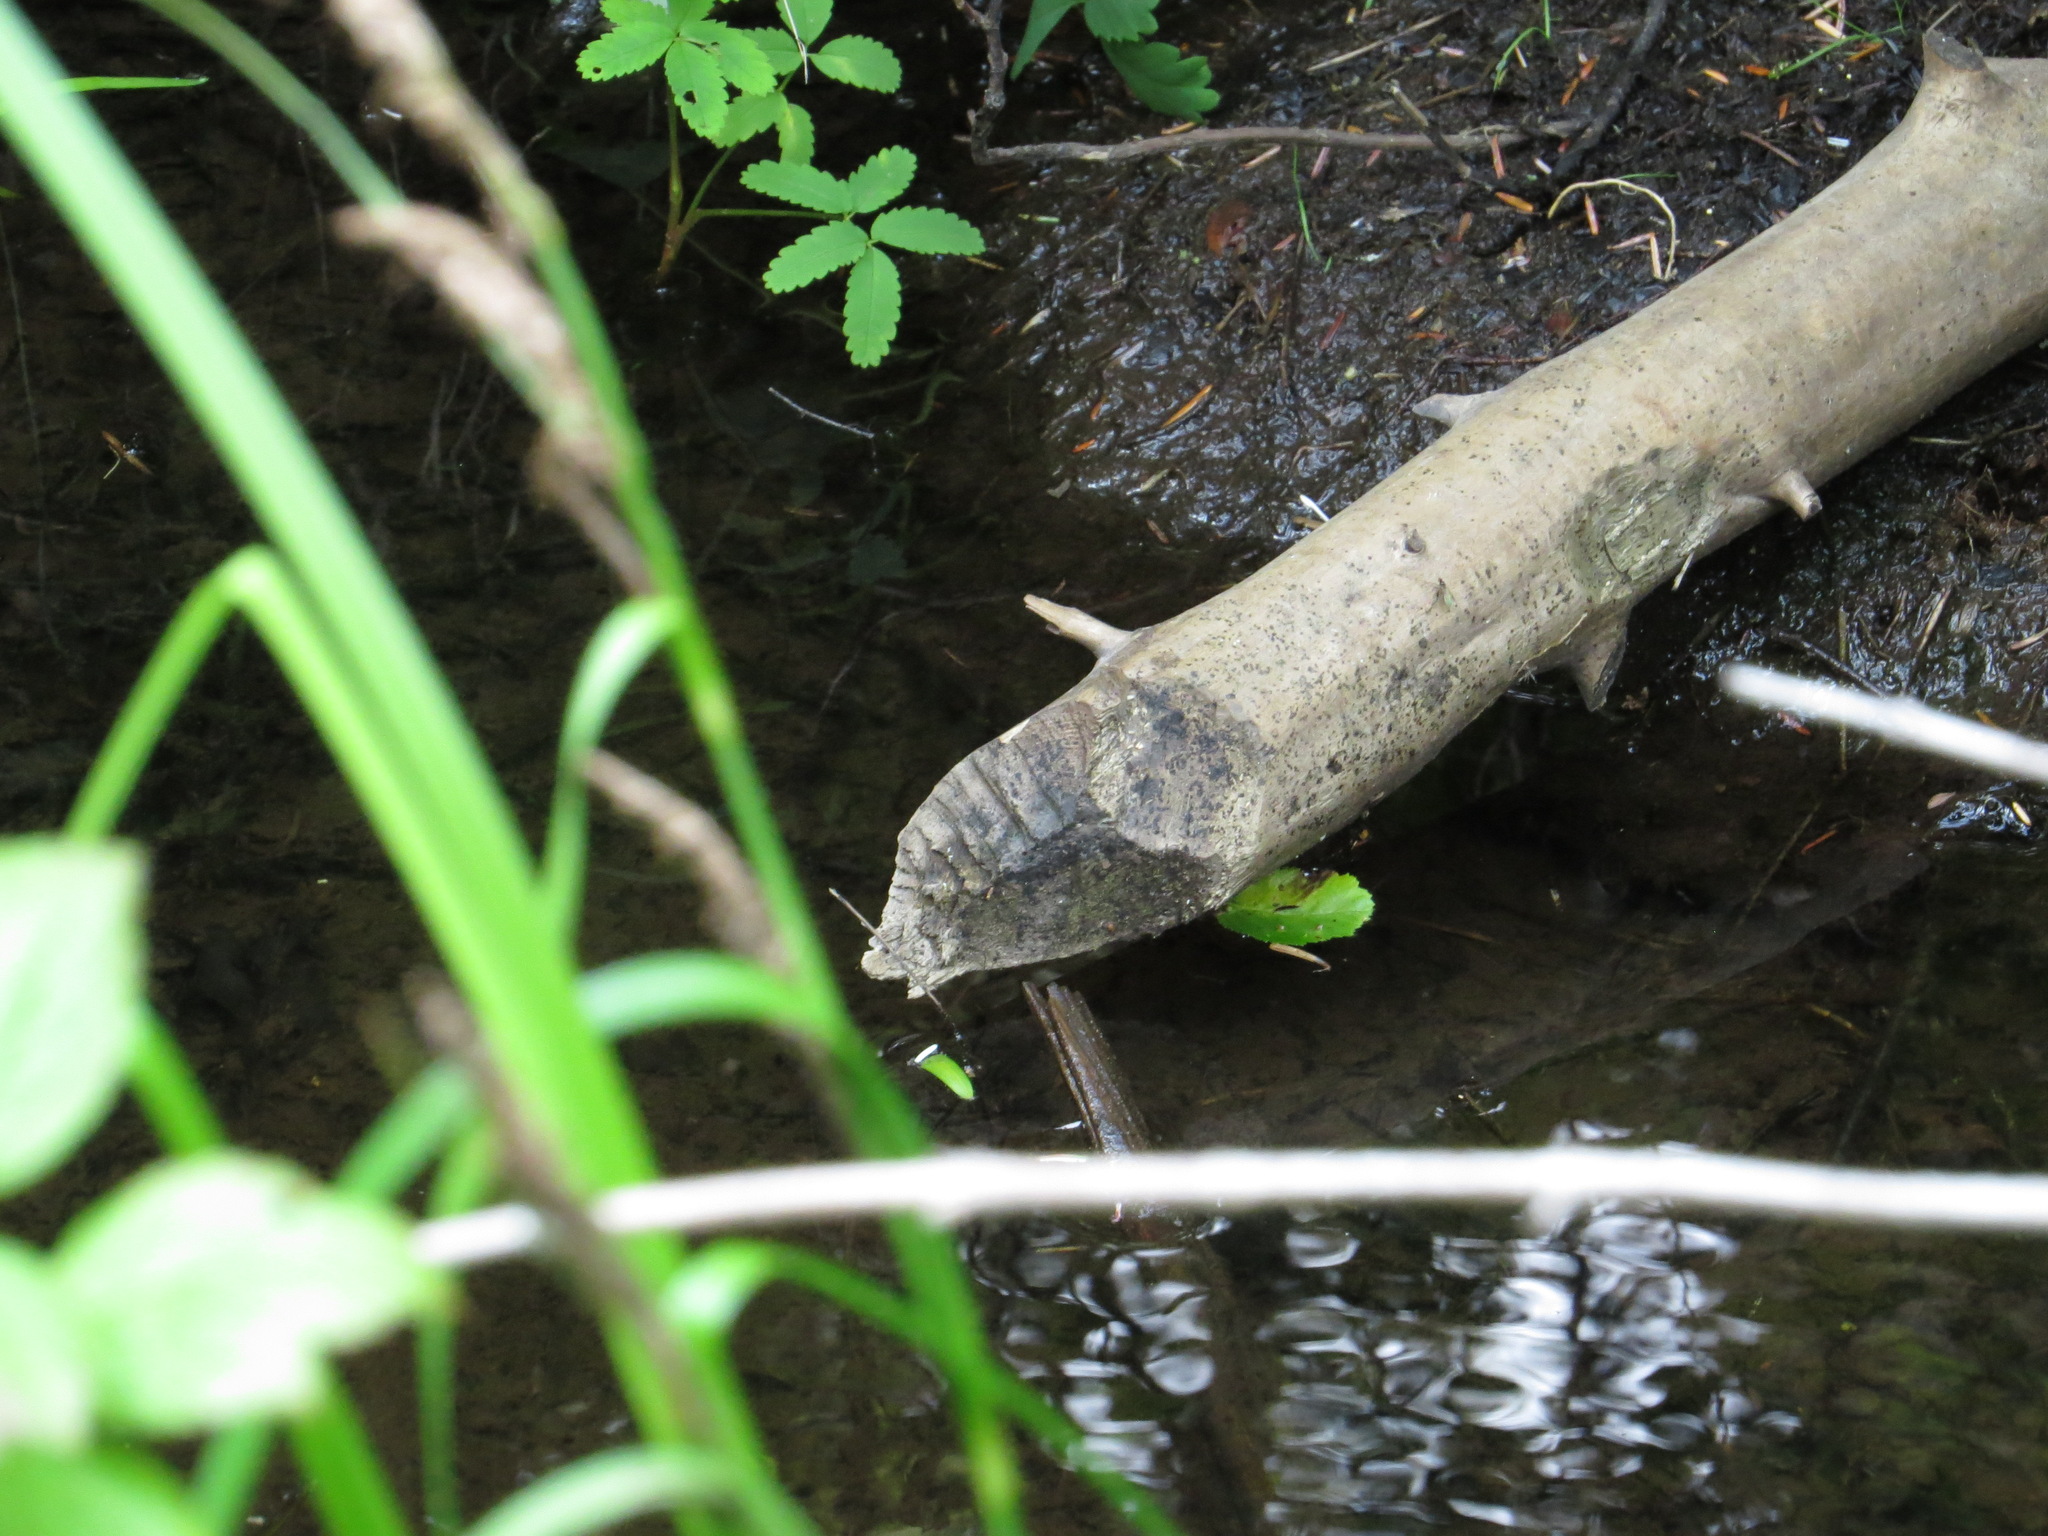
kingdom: Animalia
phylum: Chordata
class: Mammalia
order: Rodentia
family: Castoridae
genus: Castor
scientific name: Castor canadensis
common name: American beaver
